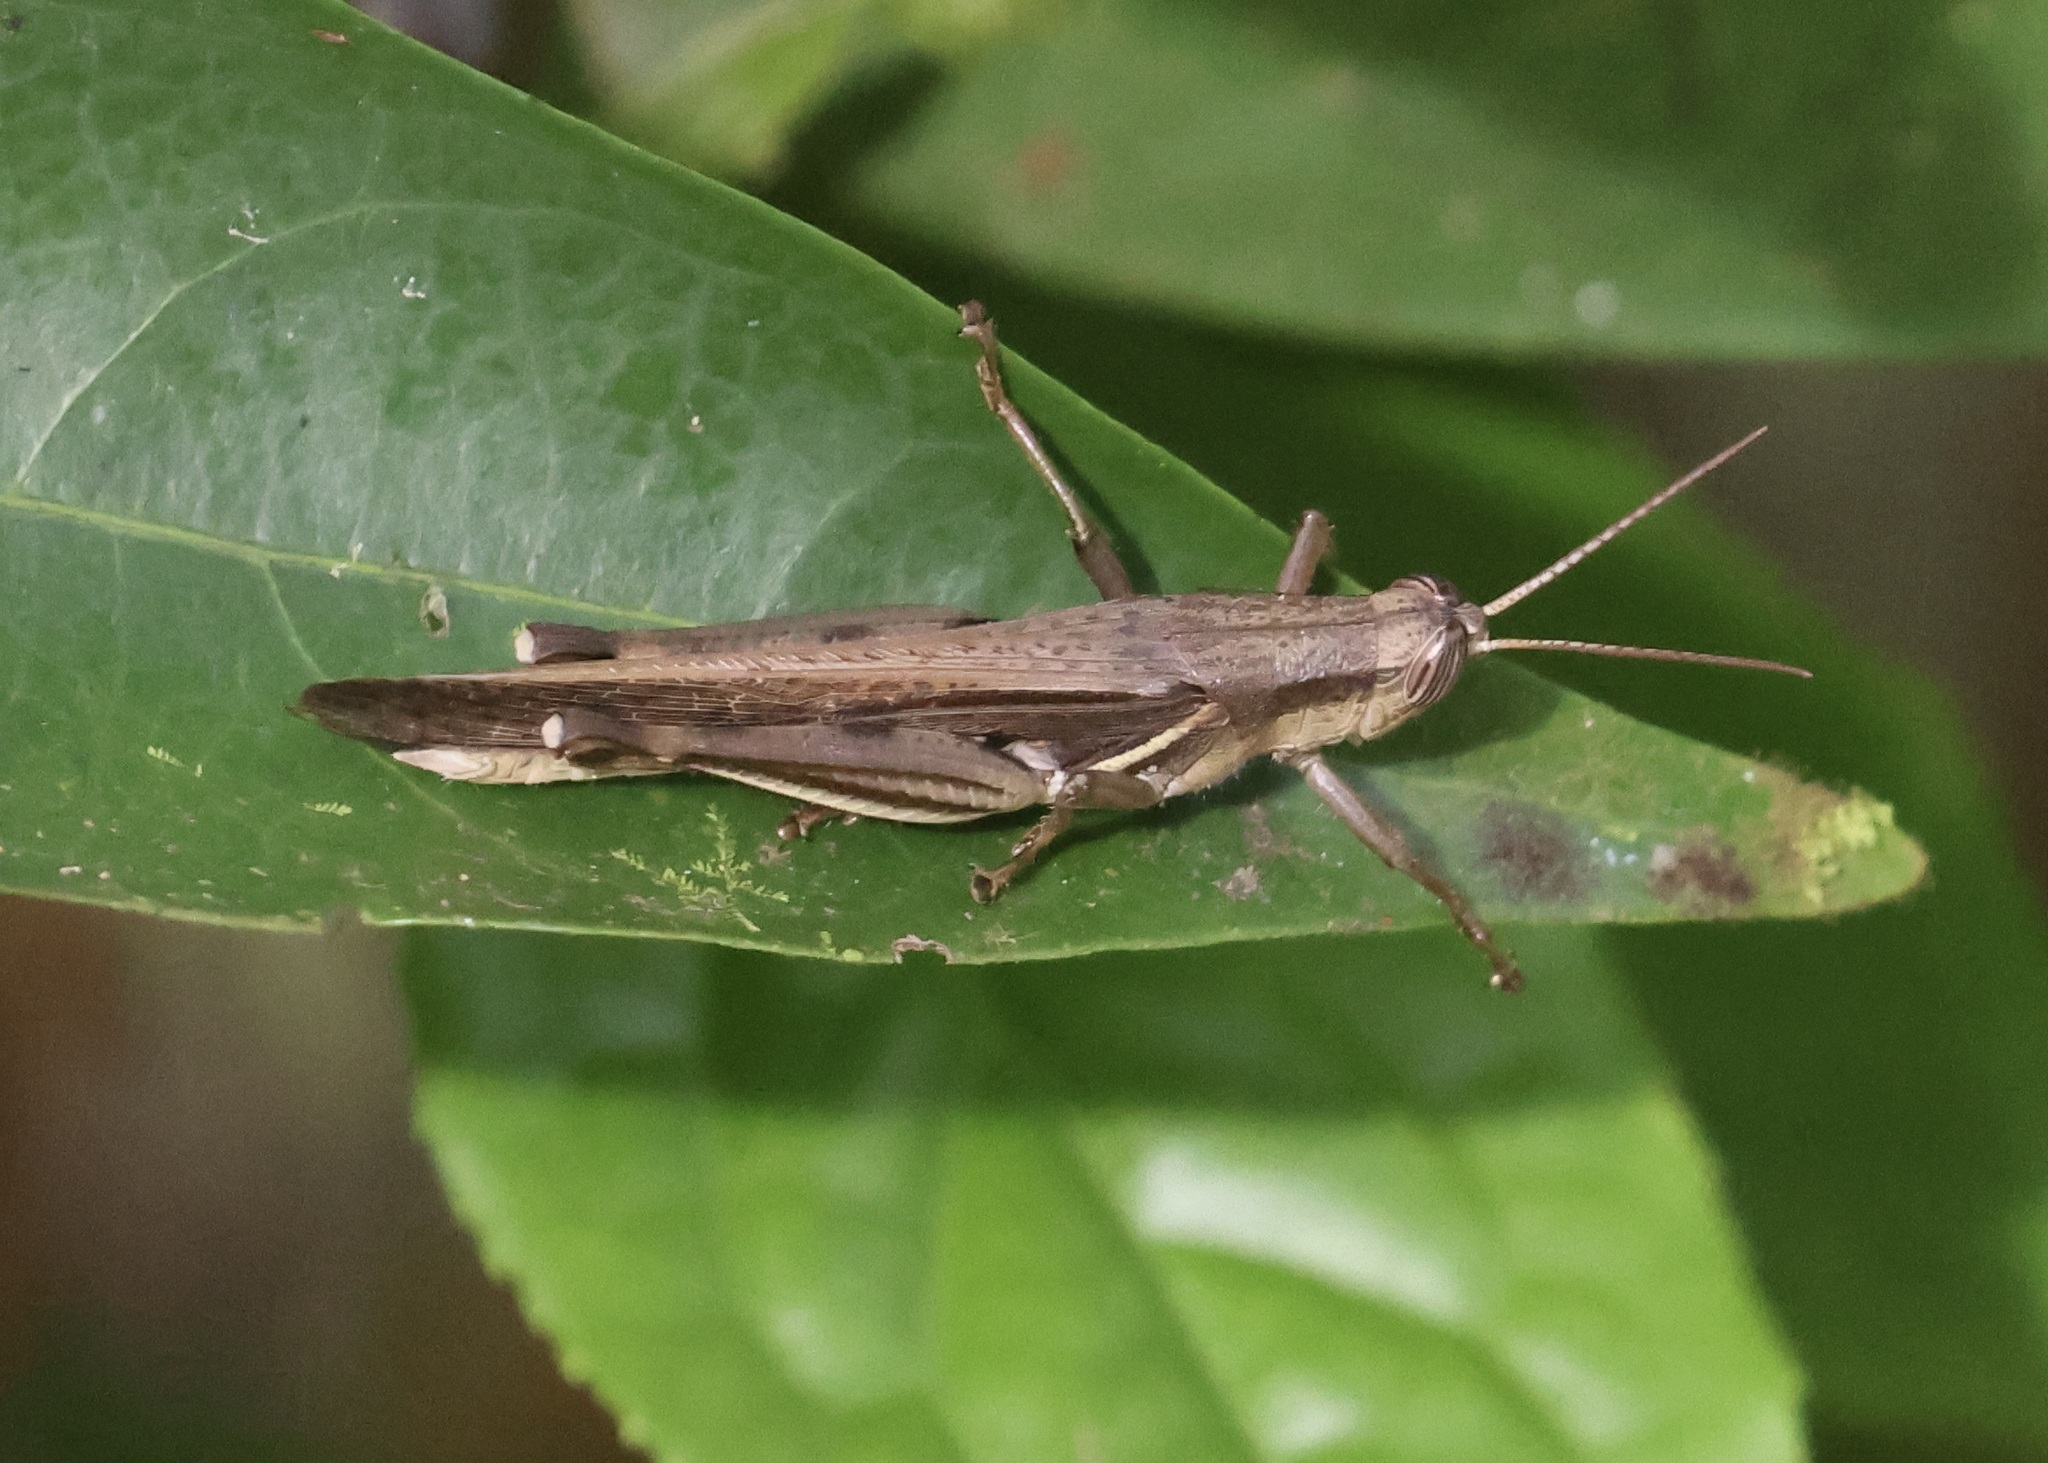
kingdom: Animalia
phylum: Arthropoda
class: Insecta
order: Orthoptera
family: Acrididae
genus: Stenocatantops
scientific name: Stenocatantops splendens
